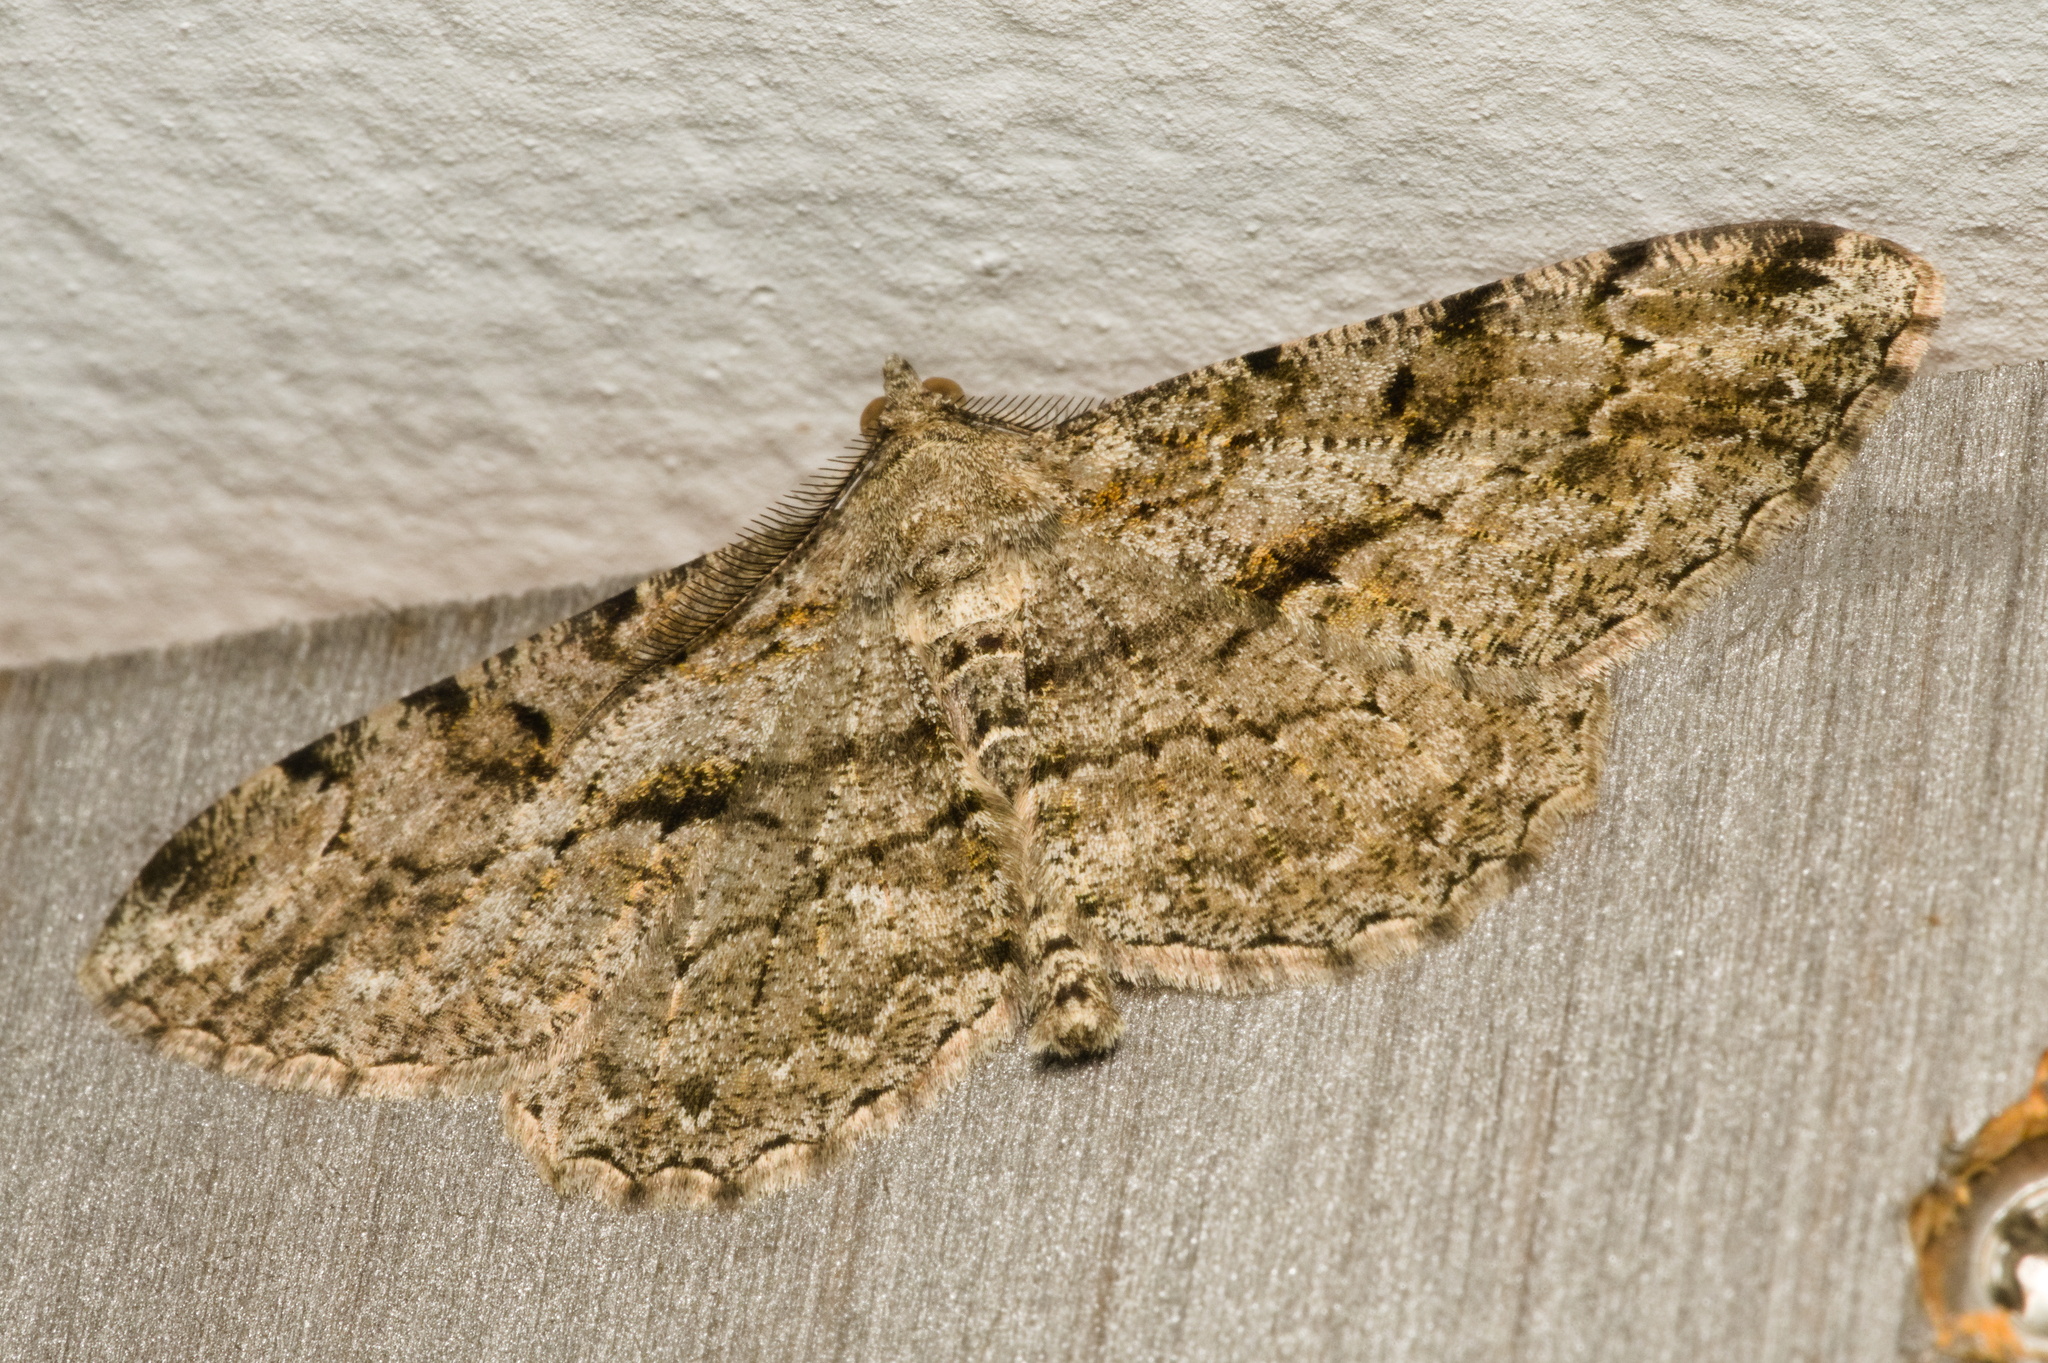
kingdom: Animalia
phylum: Arthropoda
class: Insecta
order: Lepidoptera
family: Geometridae
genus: Peribatodes
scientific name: Peribatodes rhomboidaria
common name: Willow beauty
